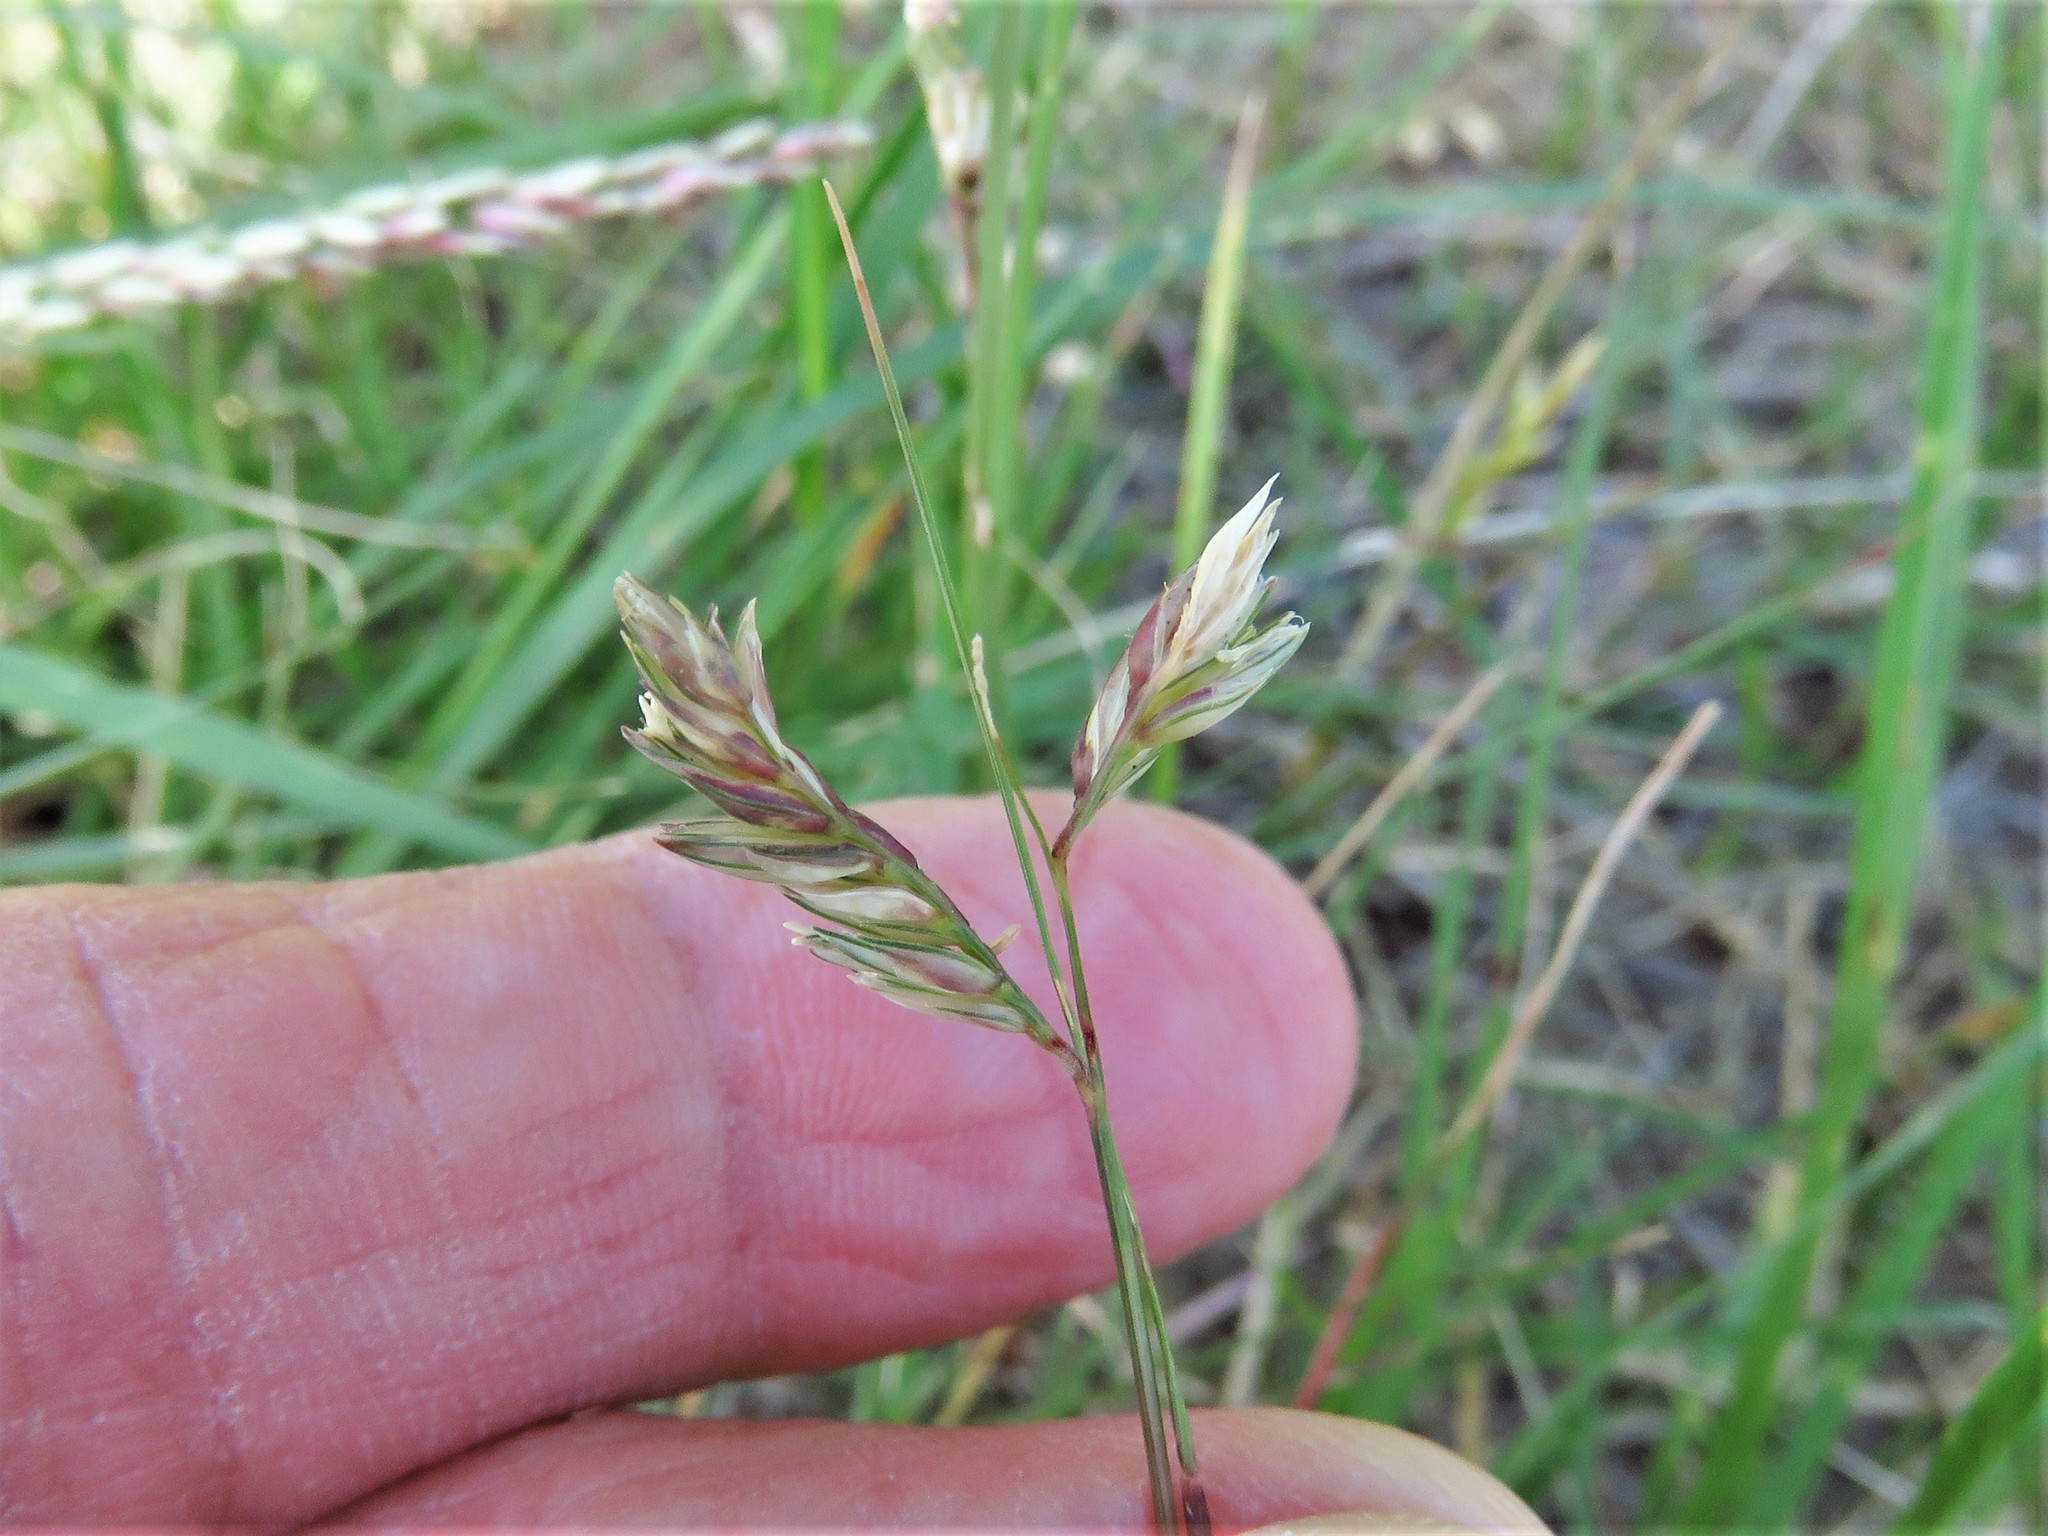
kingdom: Plantae
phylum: Tracheophyta
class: Liliopsida
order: Poales
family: Poaceae
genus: Bouteloua
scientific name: Bouteloua dactyloides
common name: Buffalo grass
